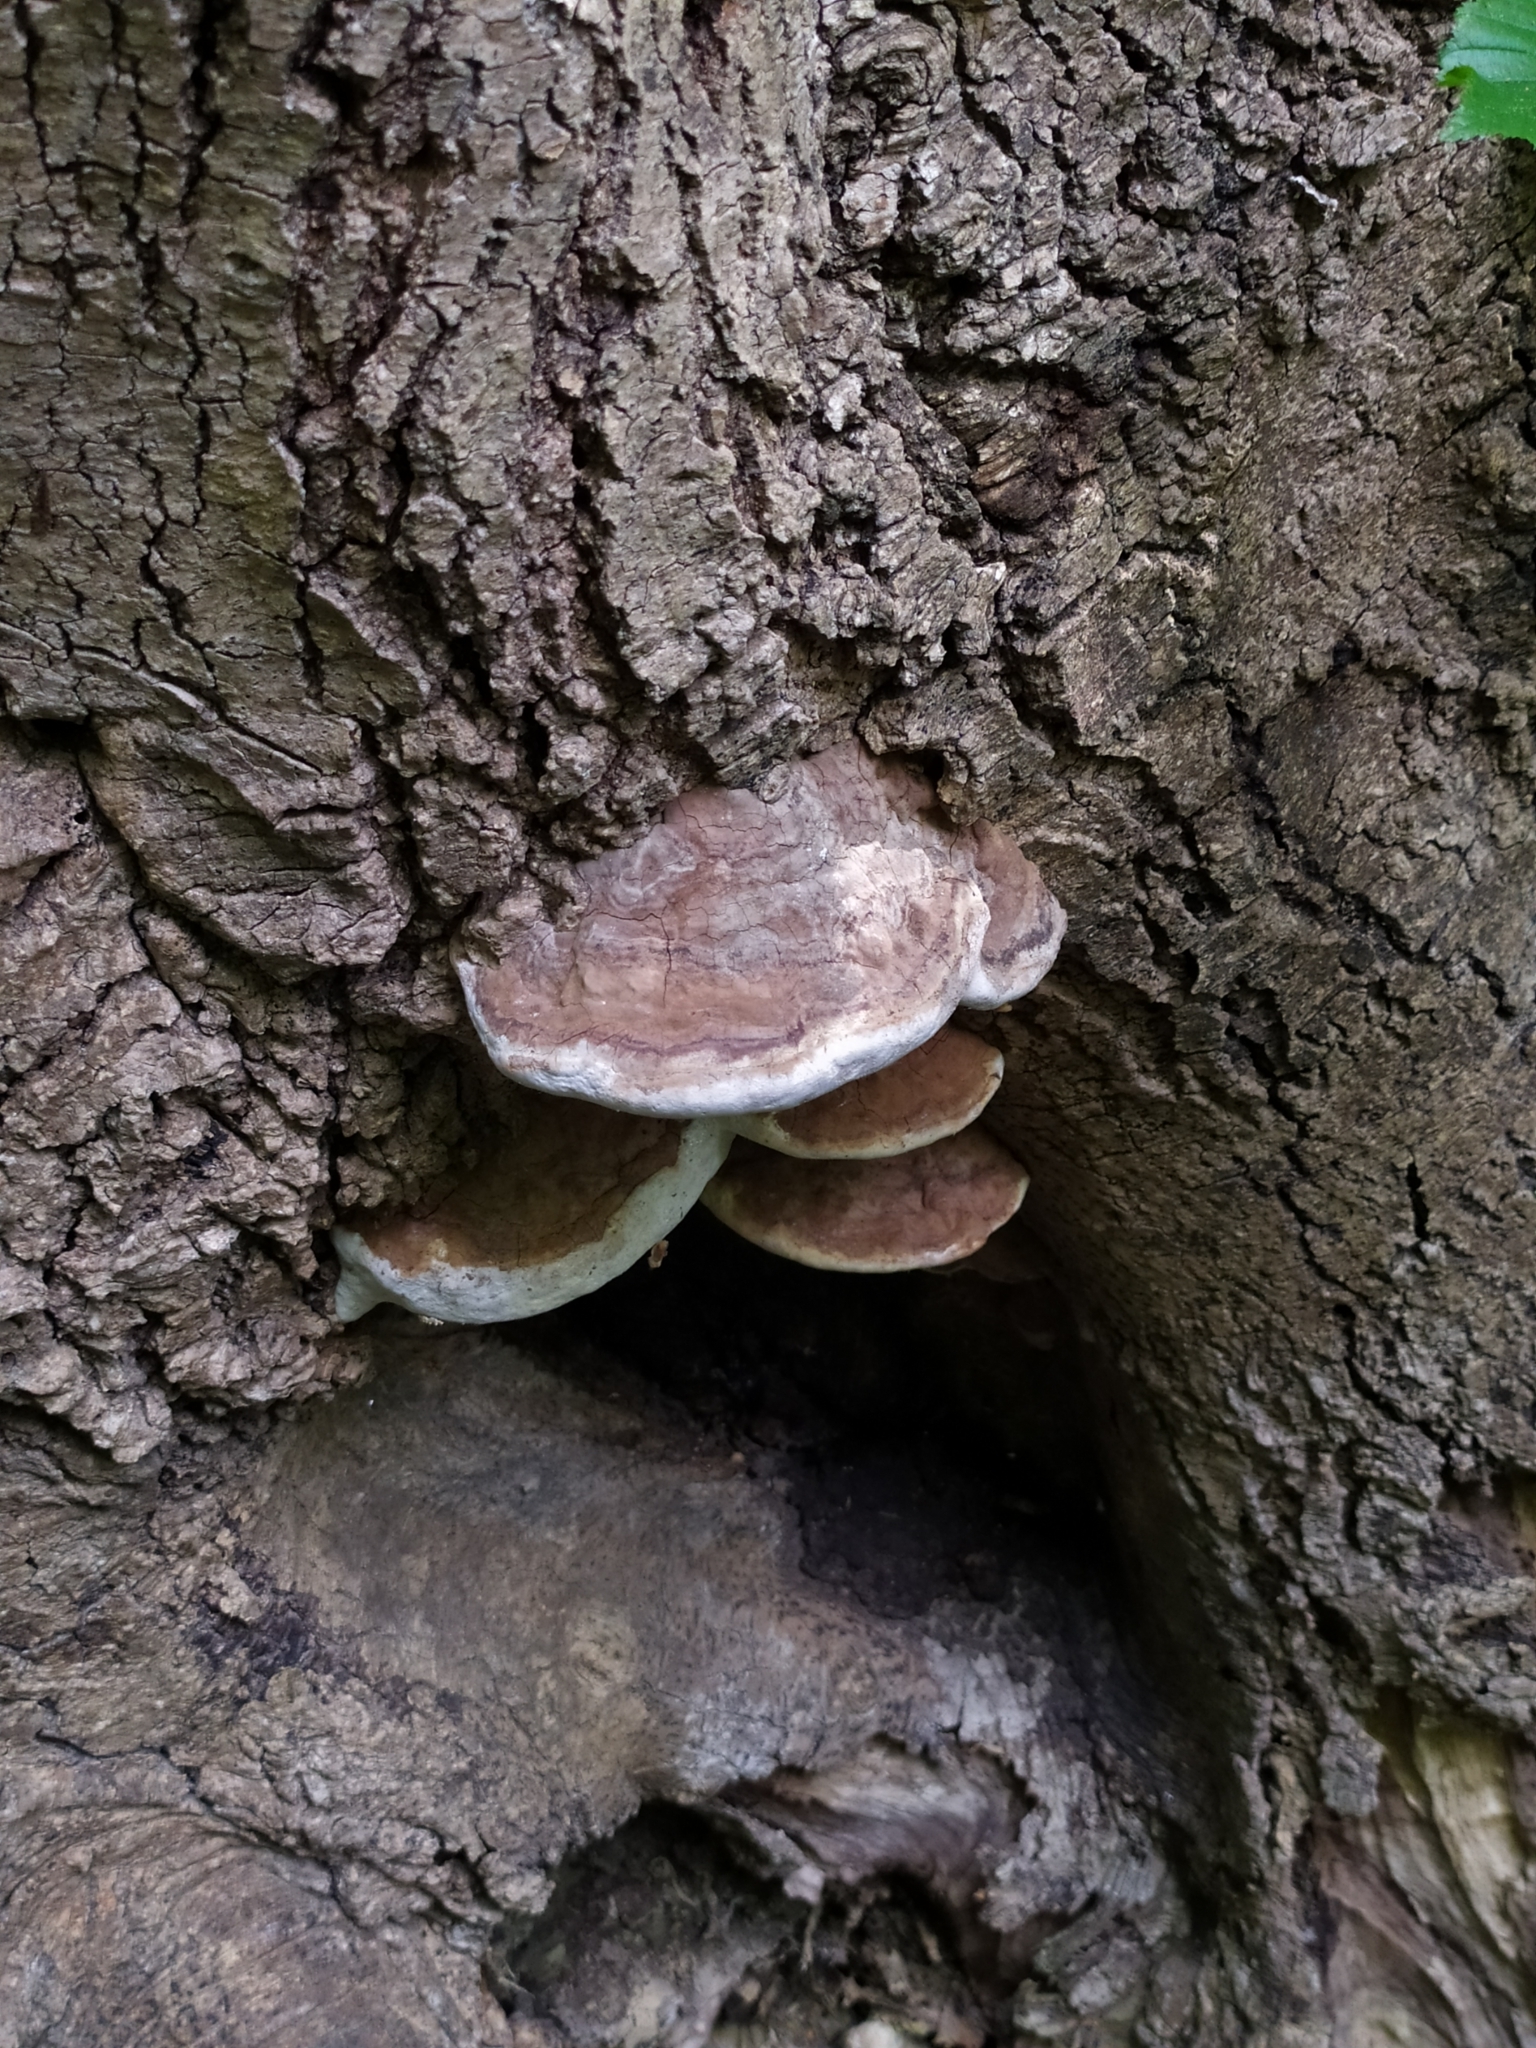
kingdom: Fungi
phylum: Basidiomycota
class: Agaricomycetes
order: Polyporales
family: Polyporaceae
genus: Vanderbylia
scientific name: Vanderbylia fraxinea
